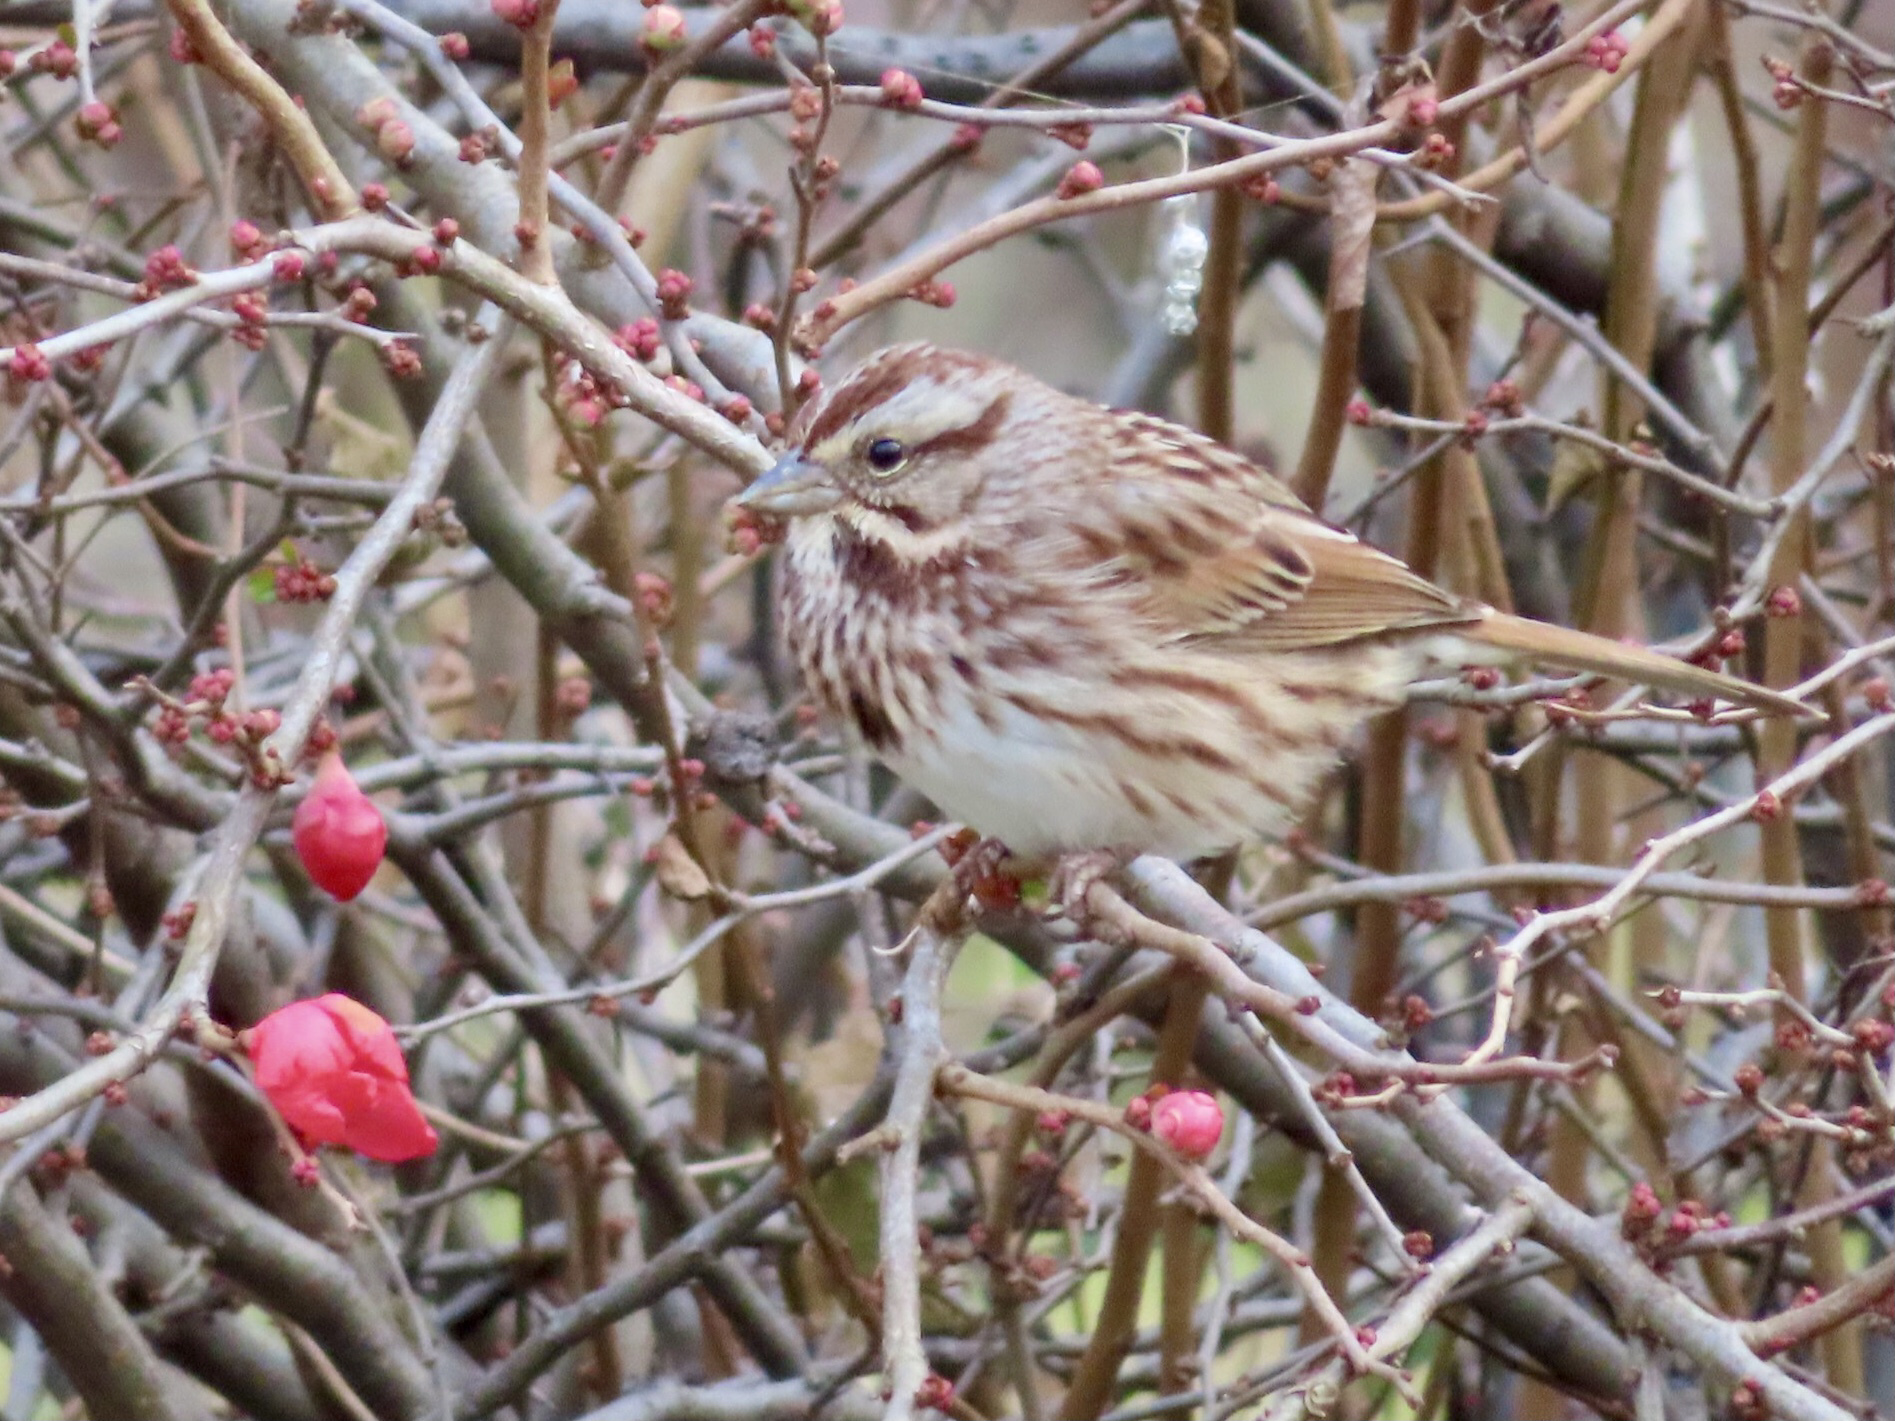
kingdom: Animalia
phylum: Chordata
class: Aves
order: Passeriformes
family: Passerellidae
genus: Melospiza
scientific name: Melospiza melodia
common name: Song sparrow
